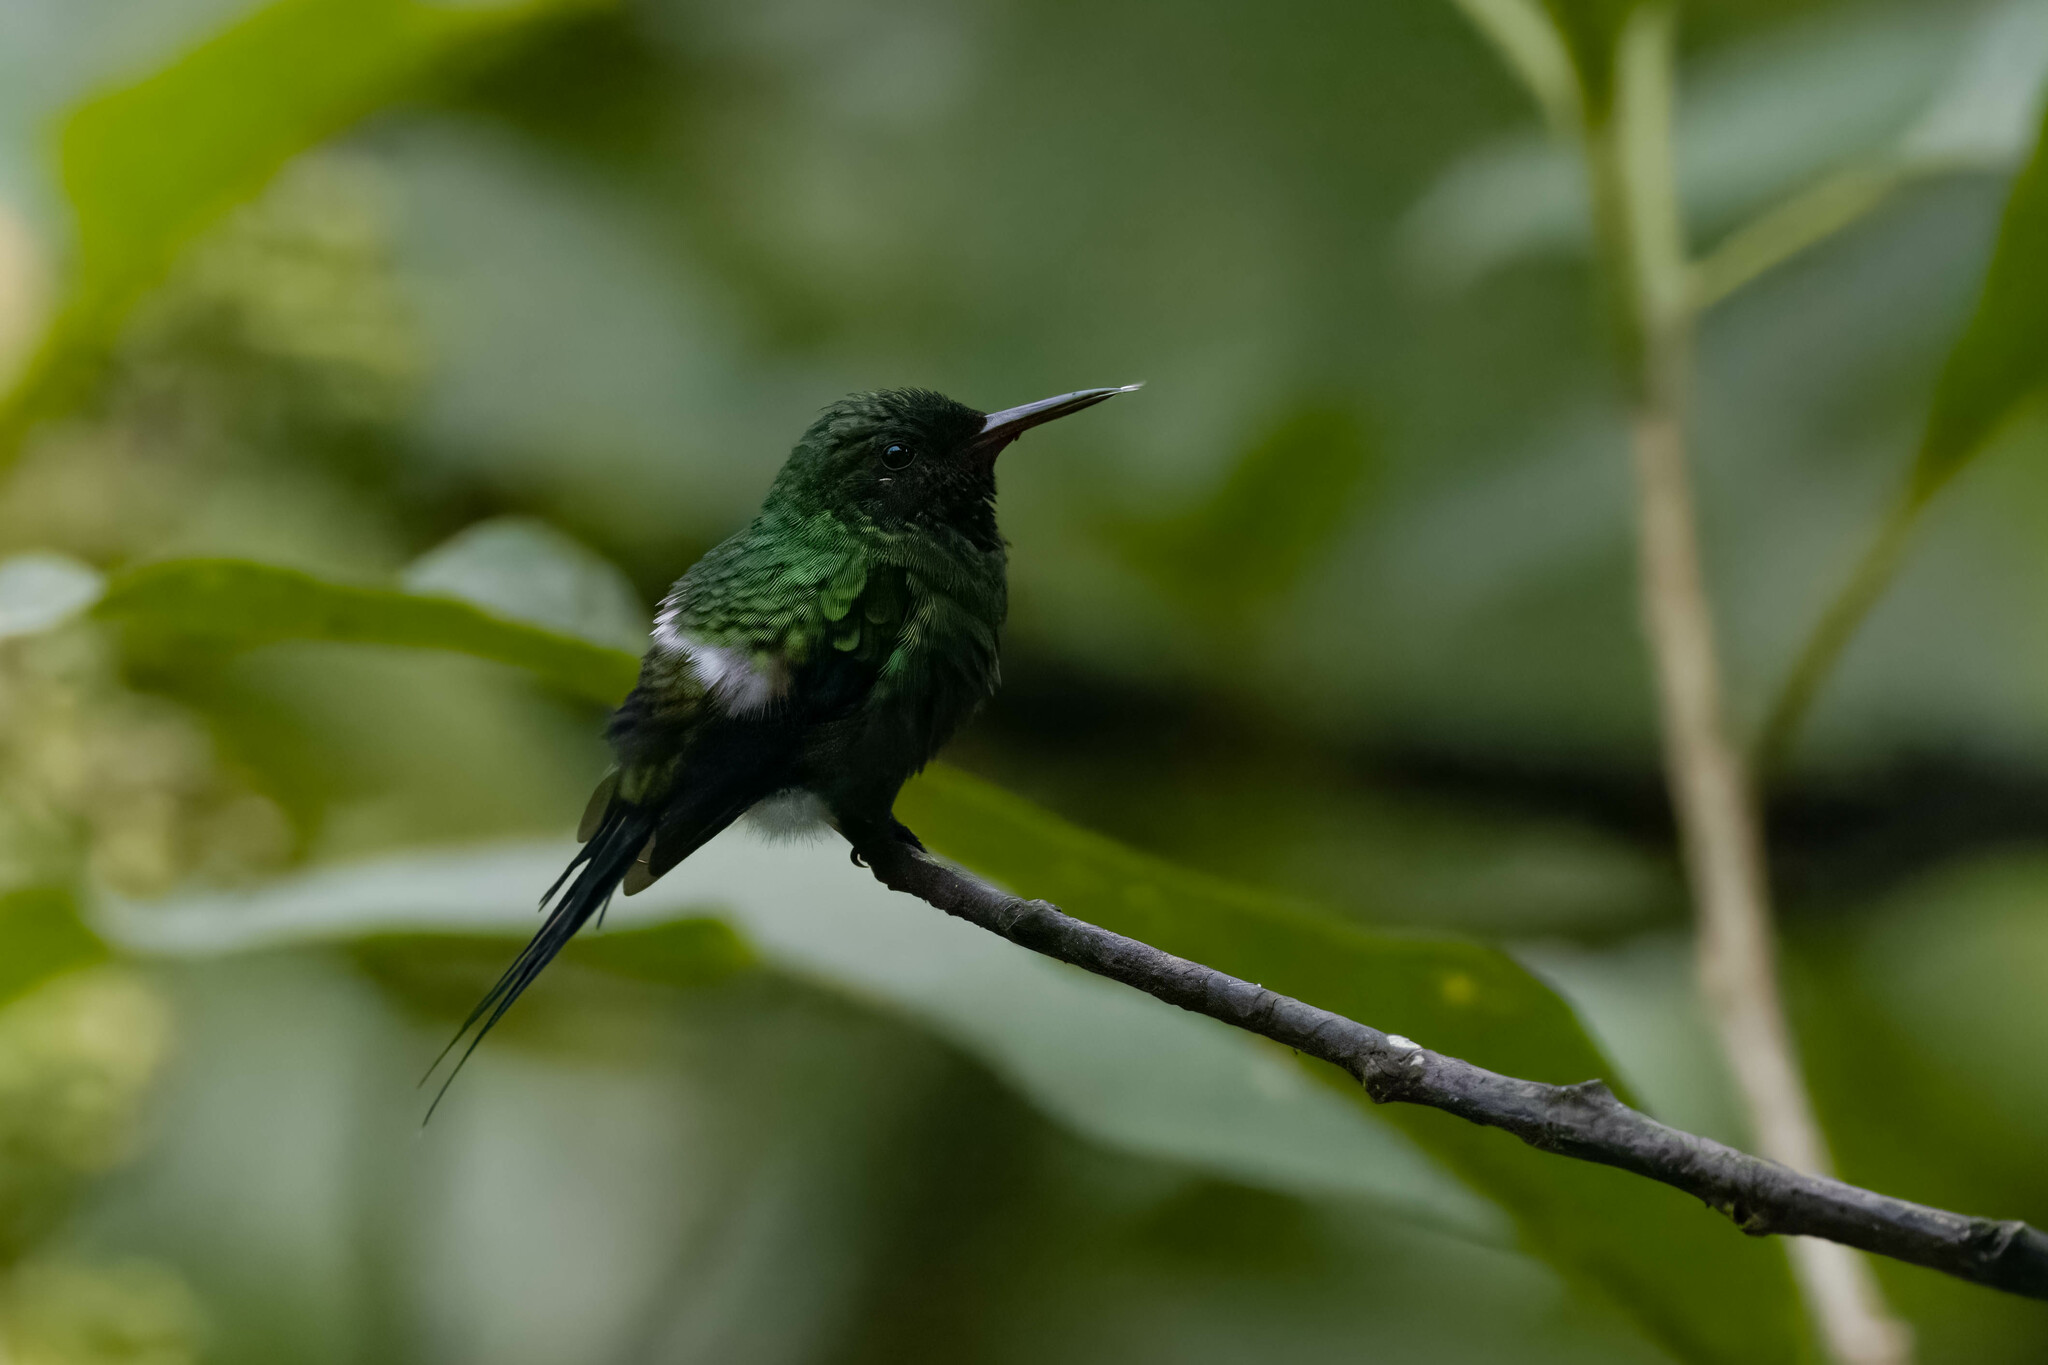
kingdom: Animalia
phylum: Chordata
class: Aves
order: Apodiformes
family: Trochilidae
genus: Discosura
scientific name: Discosura conversii
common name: Green thorntail
